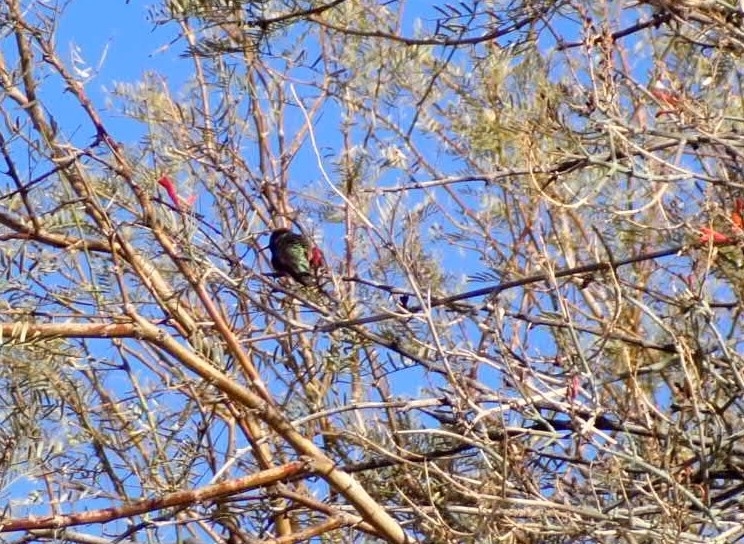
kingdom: Animalia
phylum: Chordata
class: Aves
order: Apodiformes
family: Trochilidae
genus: Calypte
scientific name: Calypte costae
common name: Costa's hummingbird
